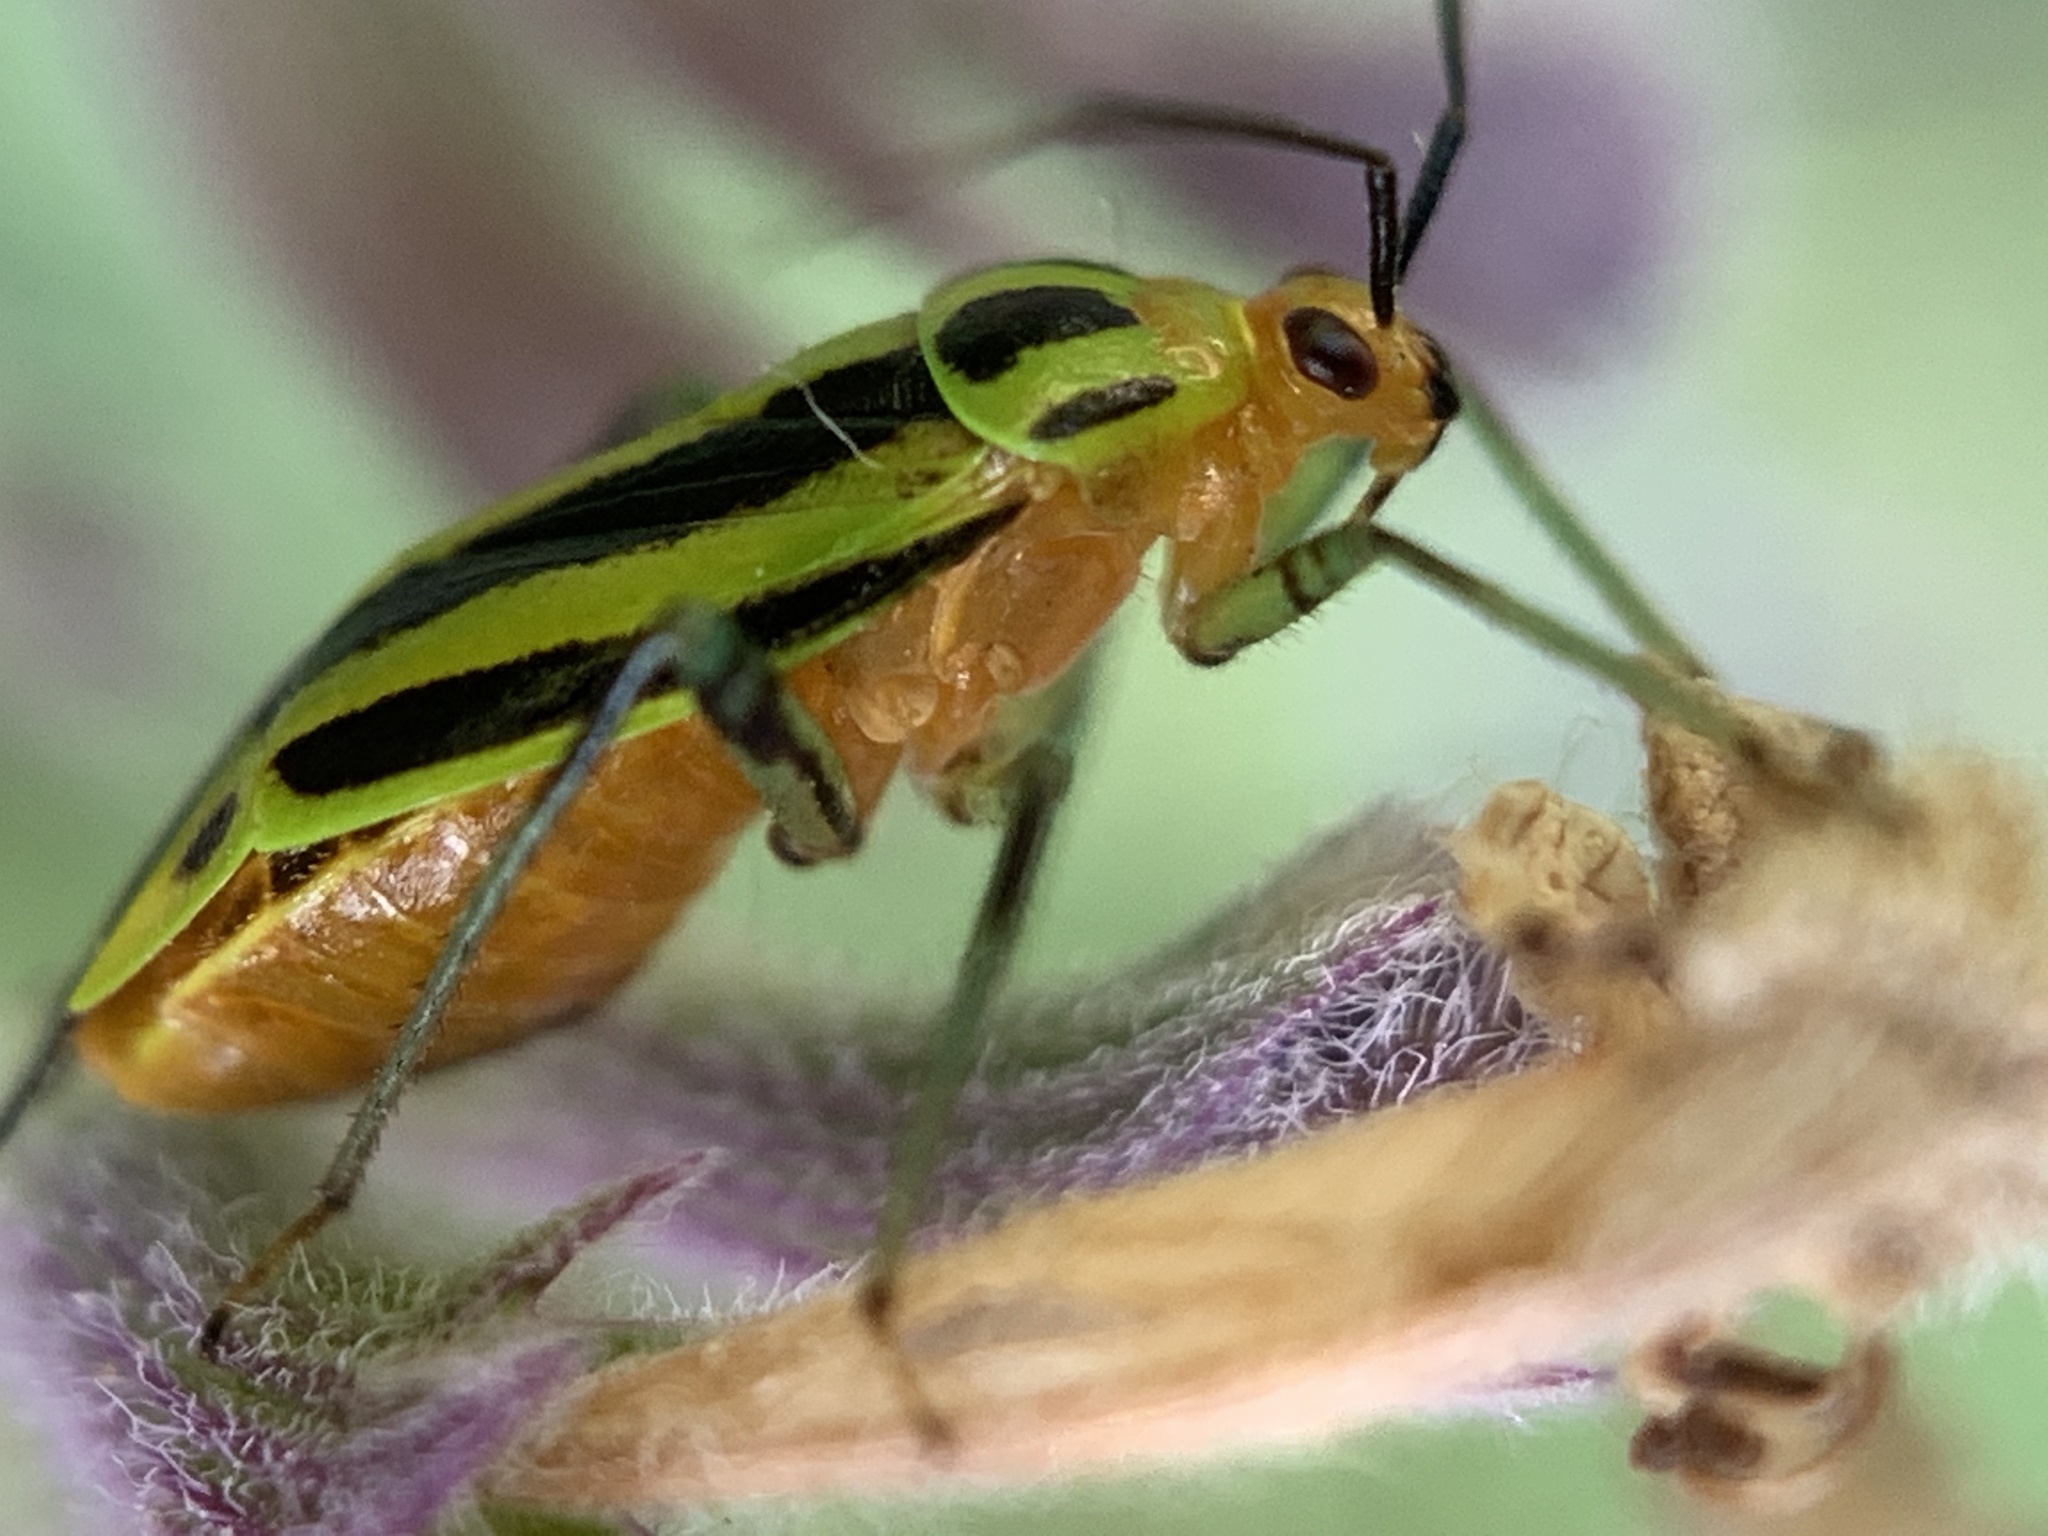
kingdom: Animalia
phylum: Arthropoda
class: Insecta
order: Hemiptera
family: Miridae
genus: Poecilocapsus
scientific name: Poecilocapsus lineatus
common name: Four-lined plant bug
